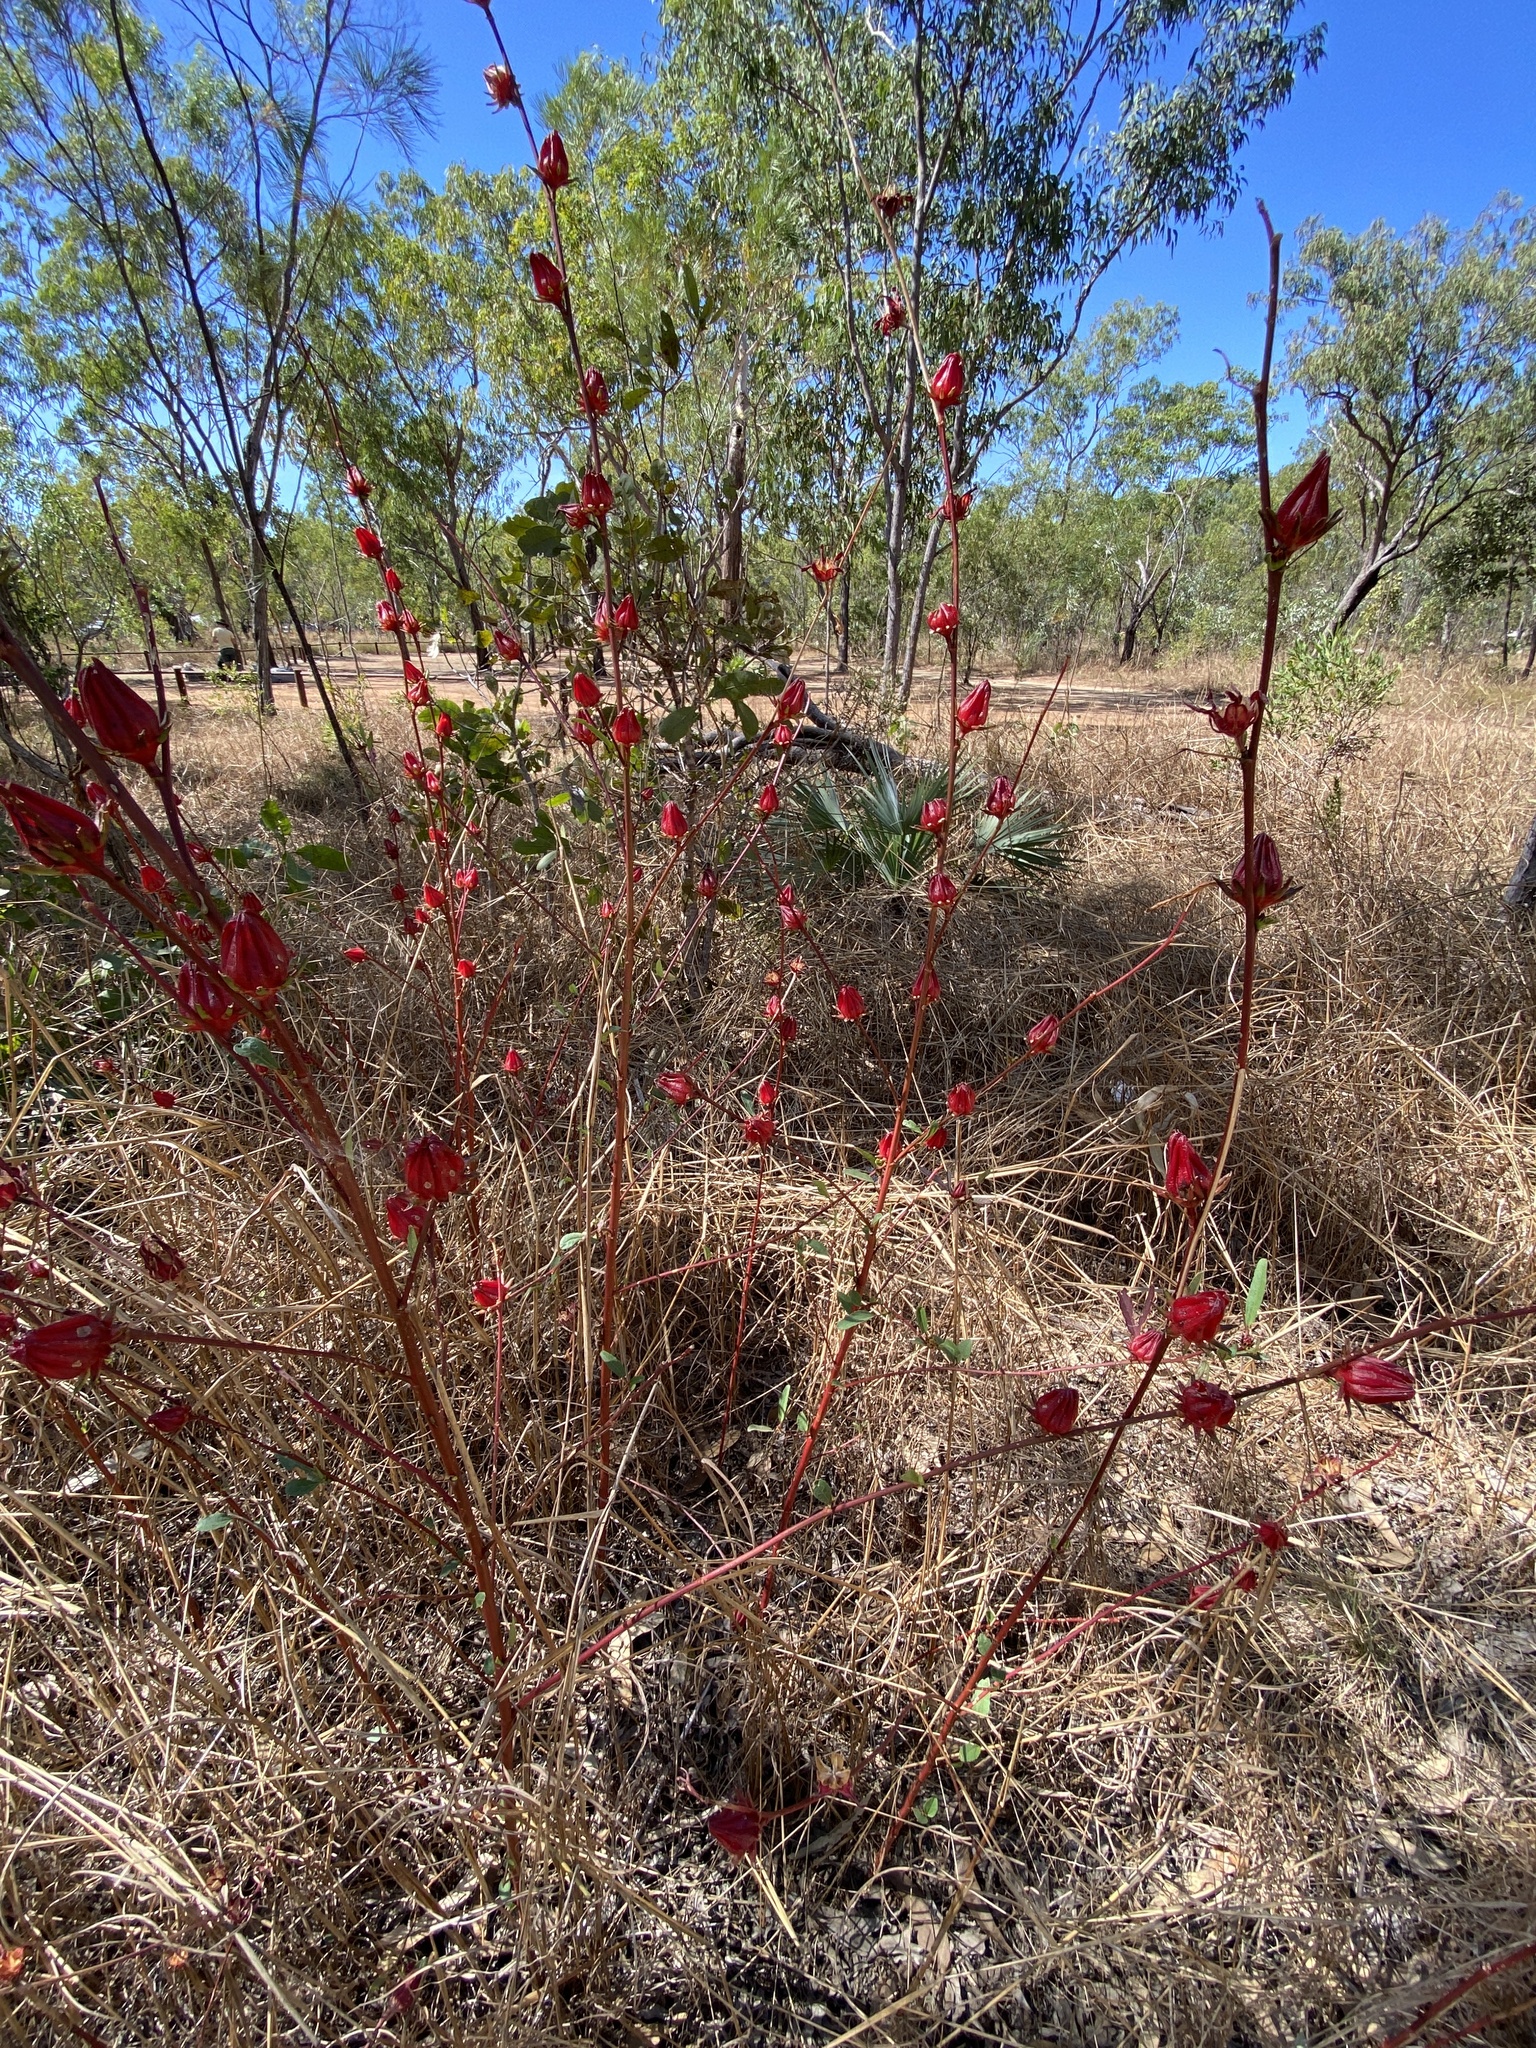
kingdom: Plantae
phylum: Tracheophyta
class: Magnoliopsida
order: Malvales
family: Malvaceae
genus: Hibiscus
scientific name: Hibiscus sabdariffa
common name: Roselle
